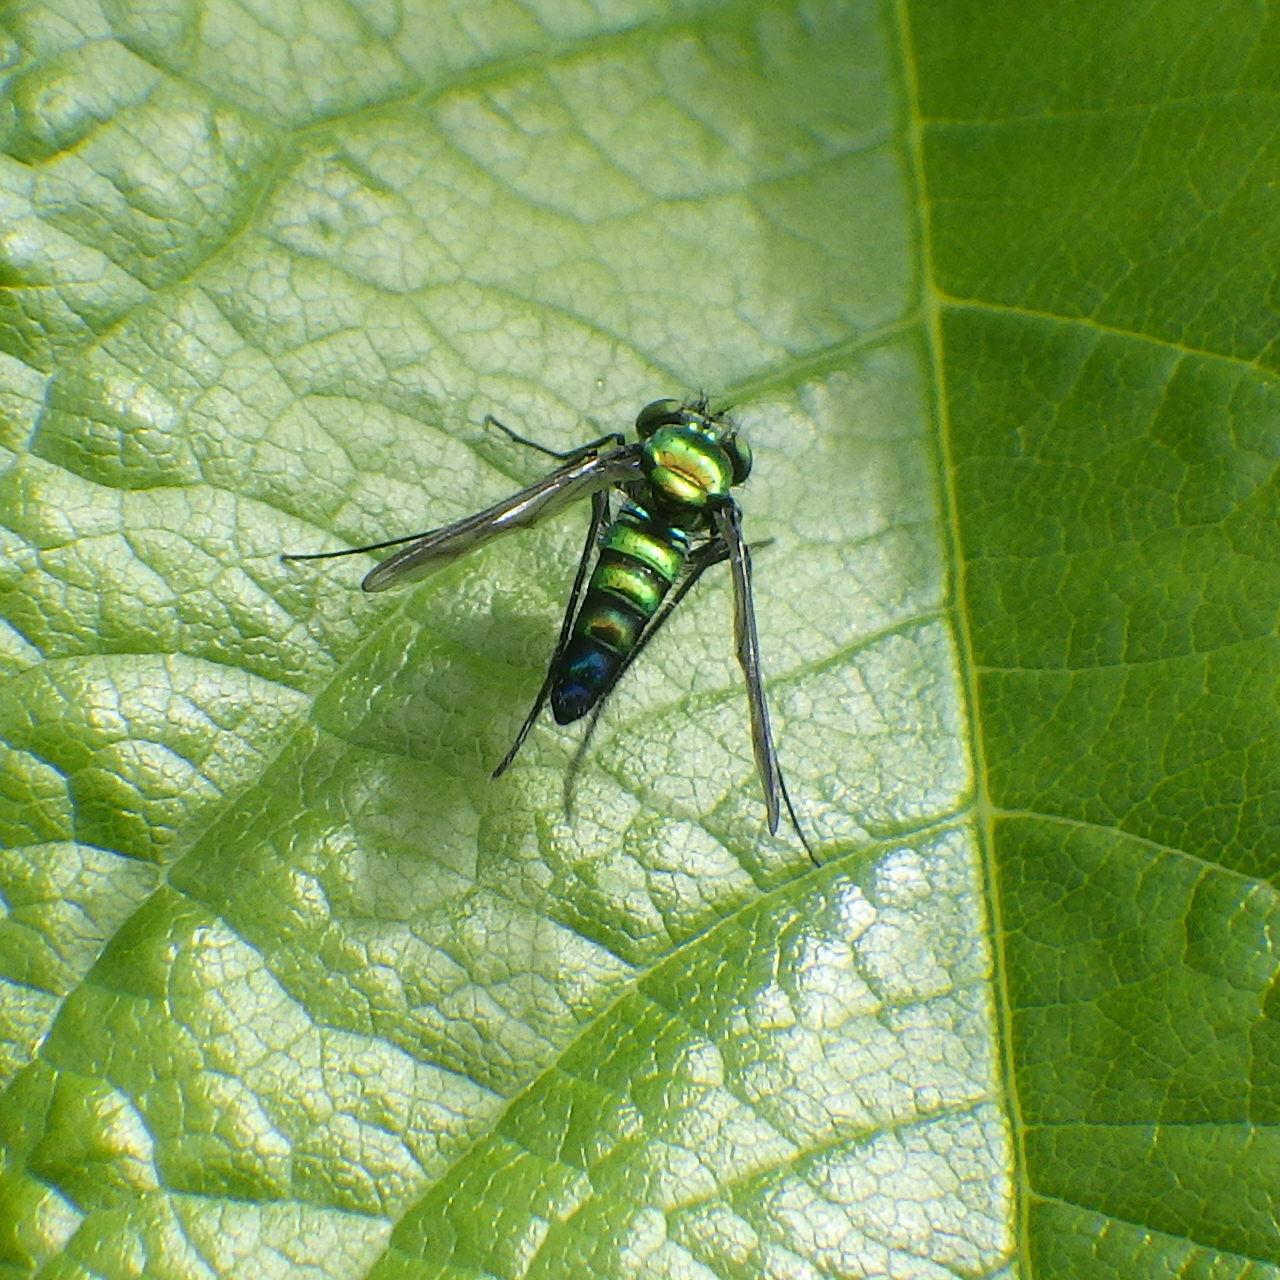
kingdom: Animalia
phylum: Arthropoda
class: Insecta
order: Diptera
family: Dolichopodidae
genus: Condylostylus
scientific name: Condylostylus patibulatus
